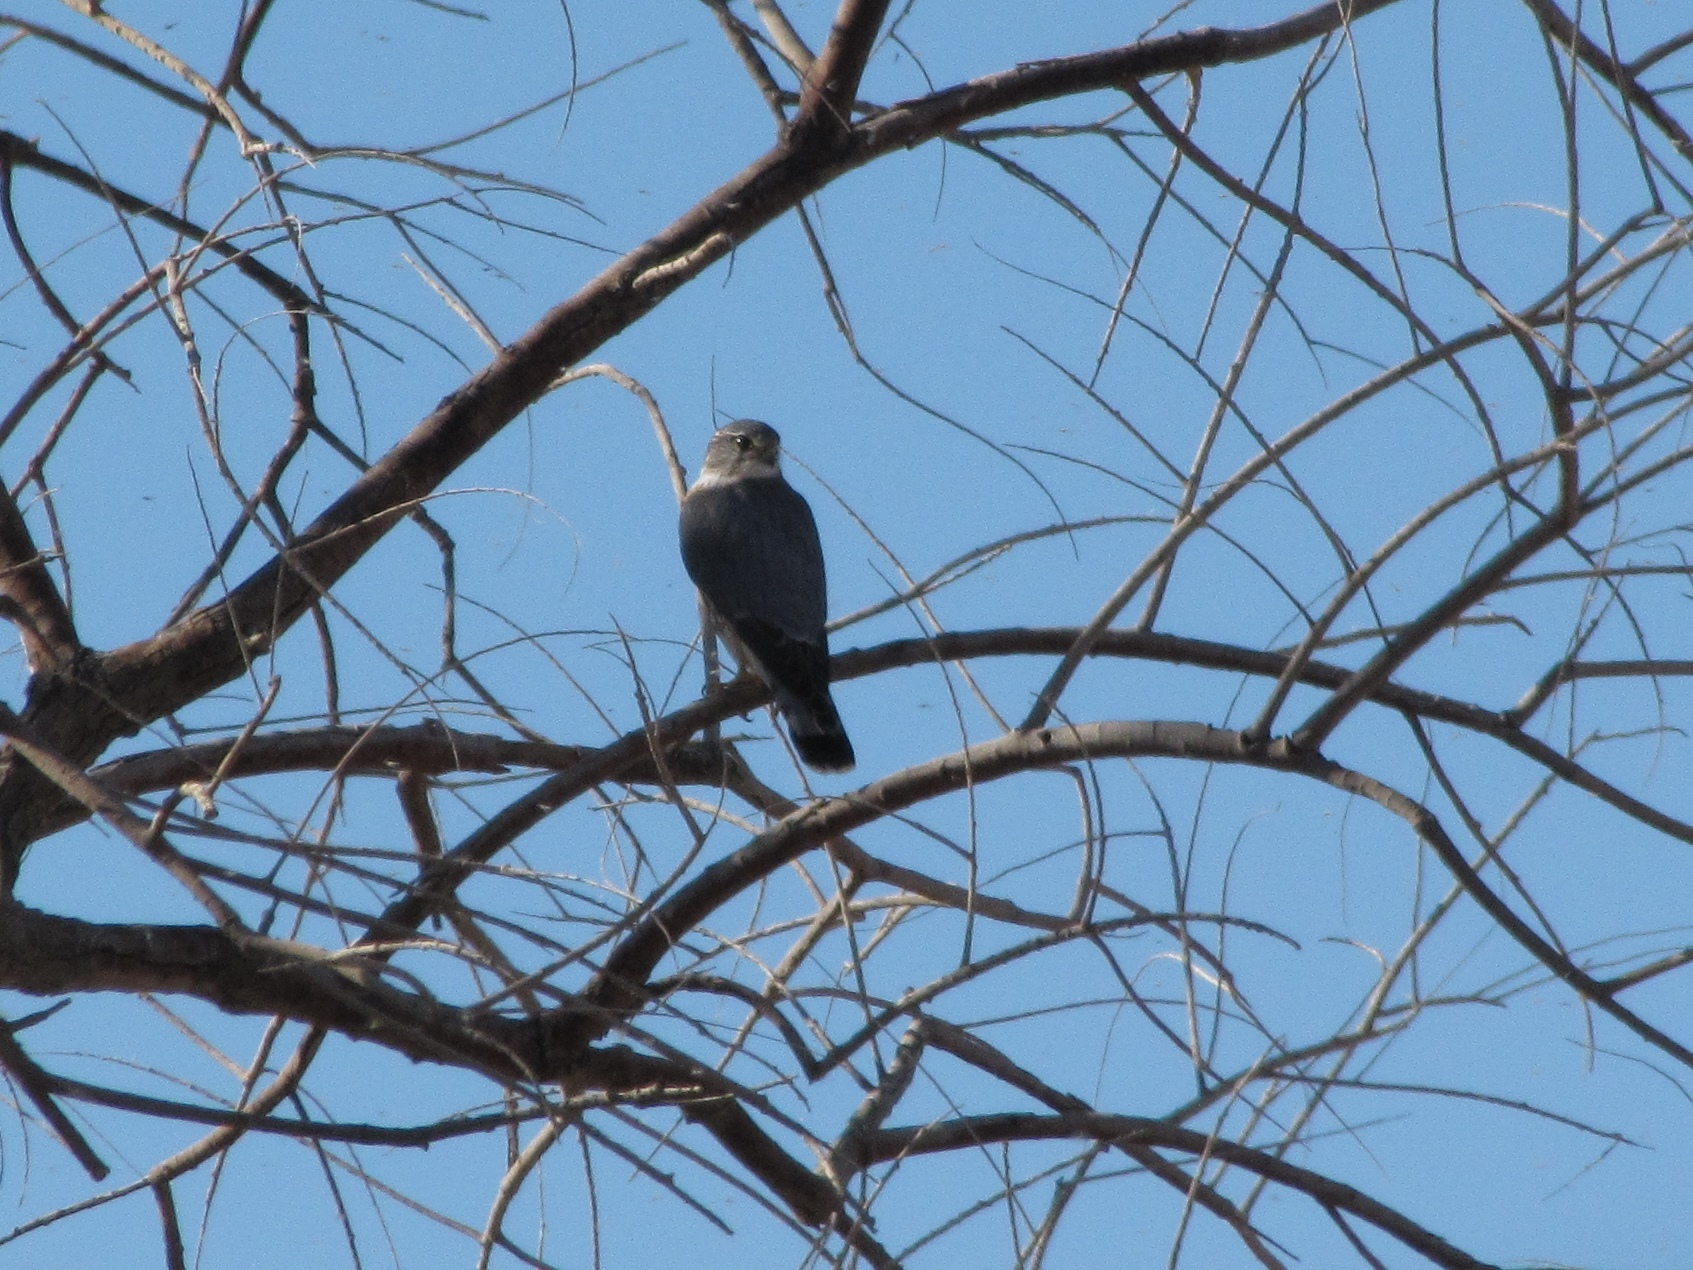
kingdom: Animalia
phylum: Chordata
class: Aves
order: Falconiformes
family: Falconidae
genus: Falco
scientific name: Falco columbarius
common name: Merlin
